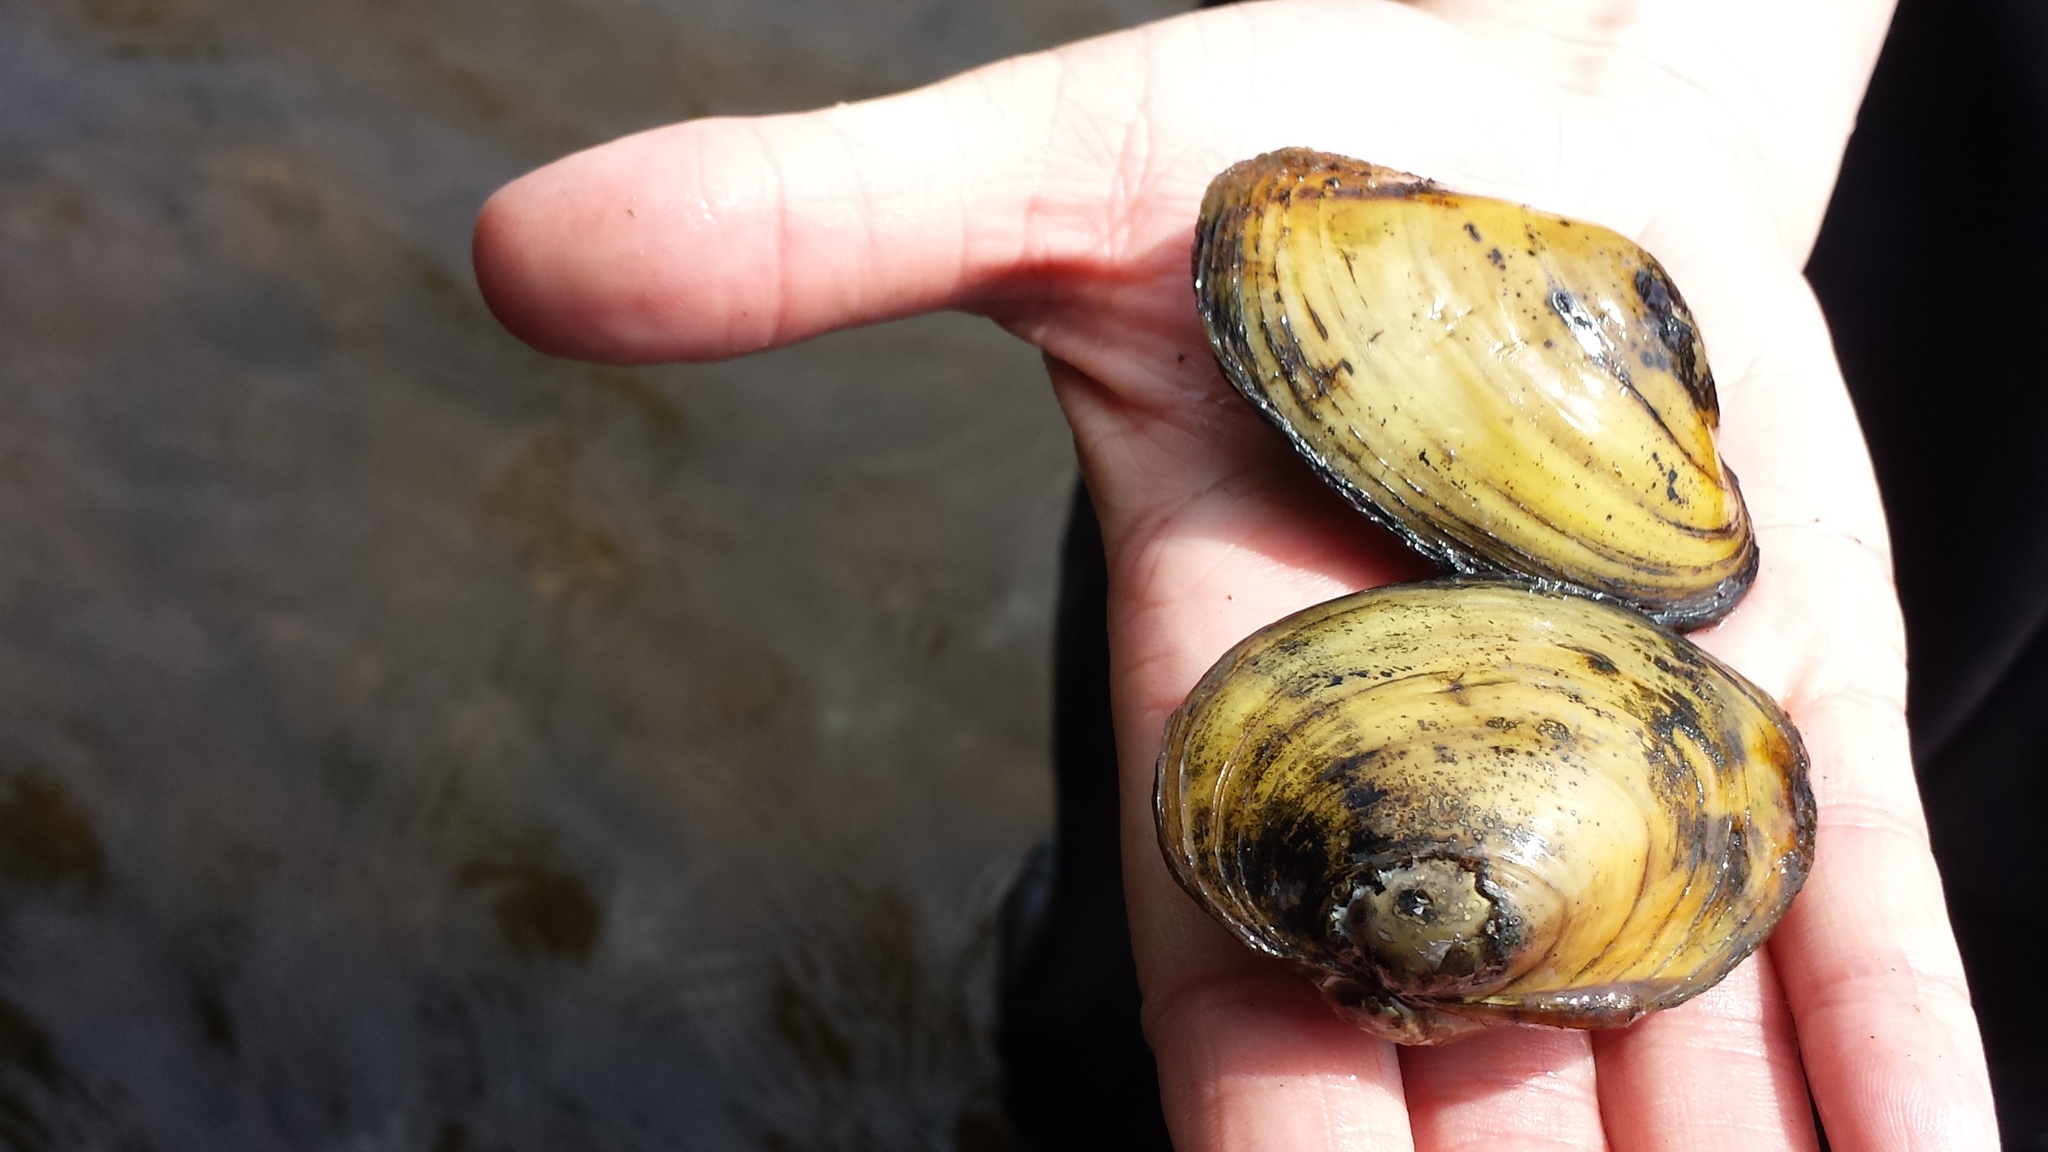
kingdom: Animalia
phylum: Mollusca
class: Bivalvia
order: Unionida
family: Unionidae
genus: Lampsilis
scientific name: Lampsilis cariosa
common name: Yellow lampmussel
